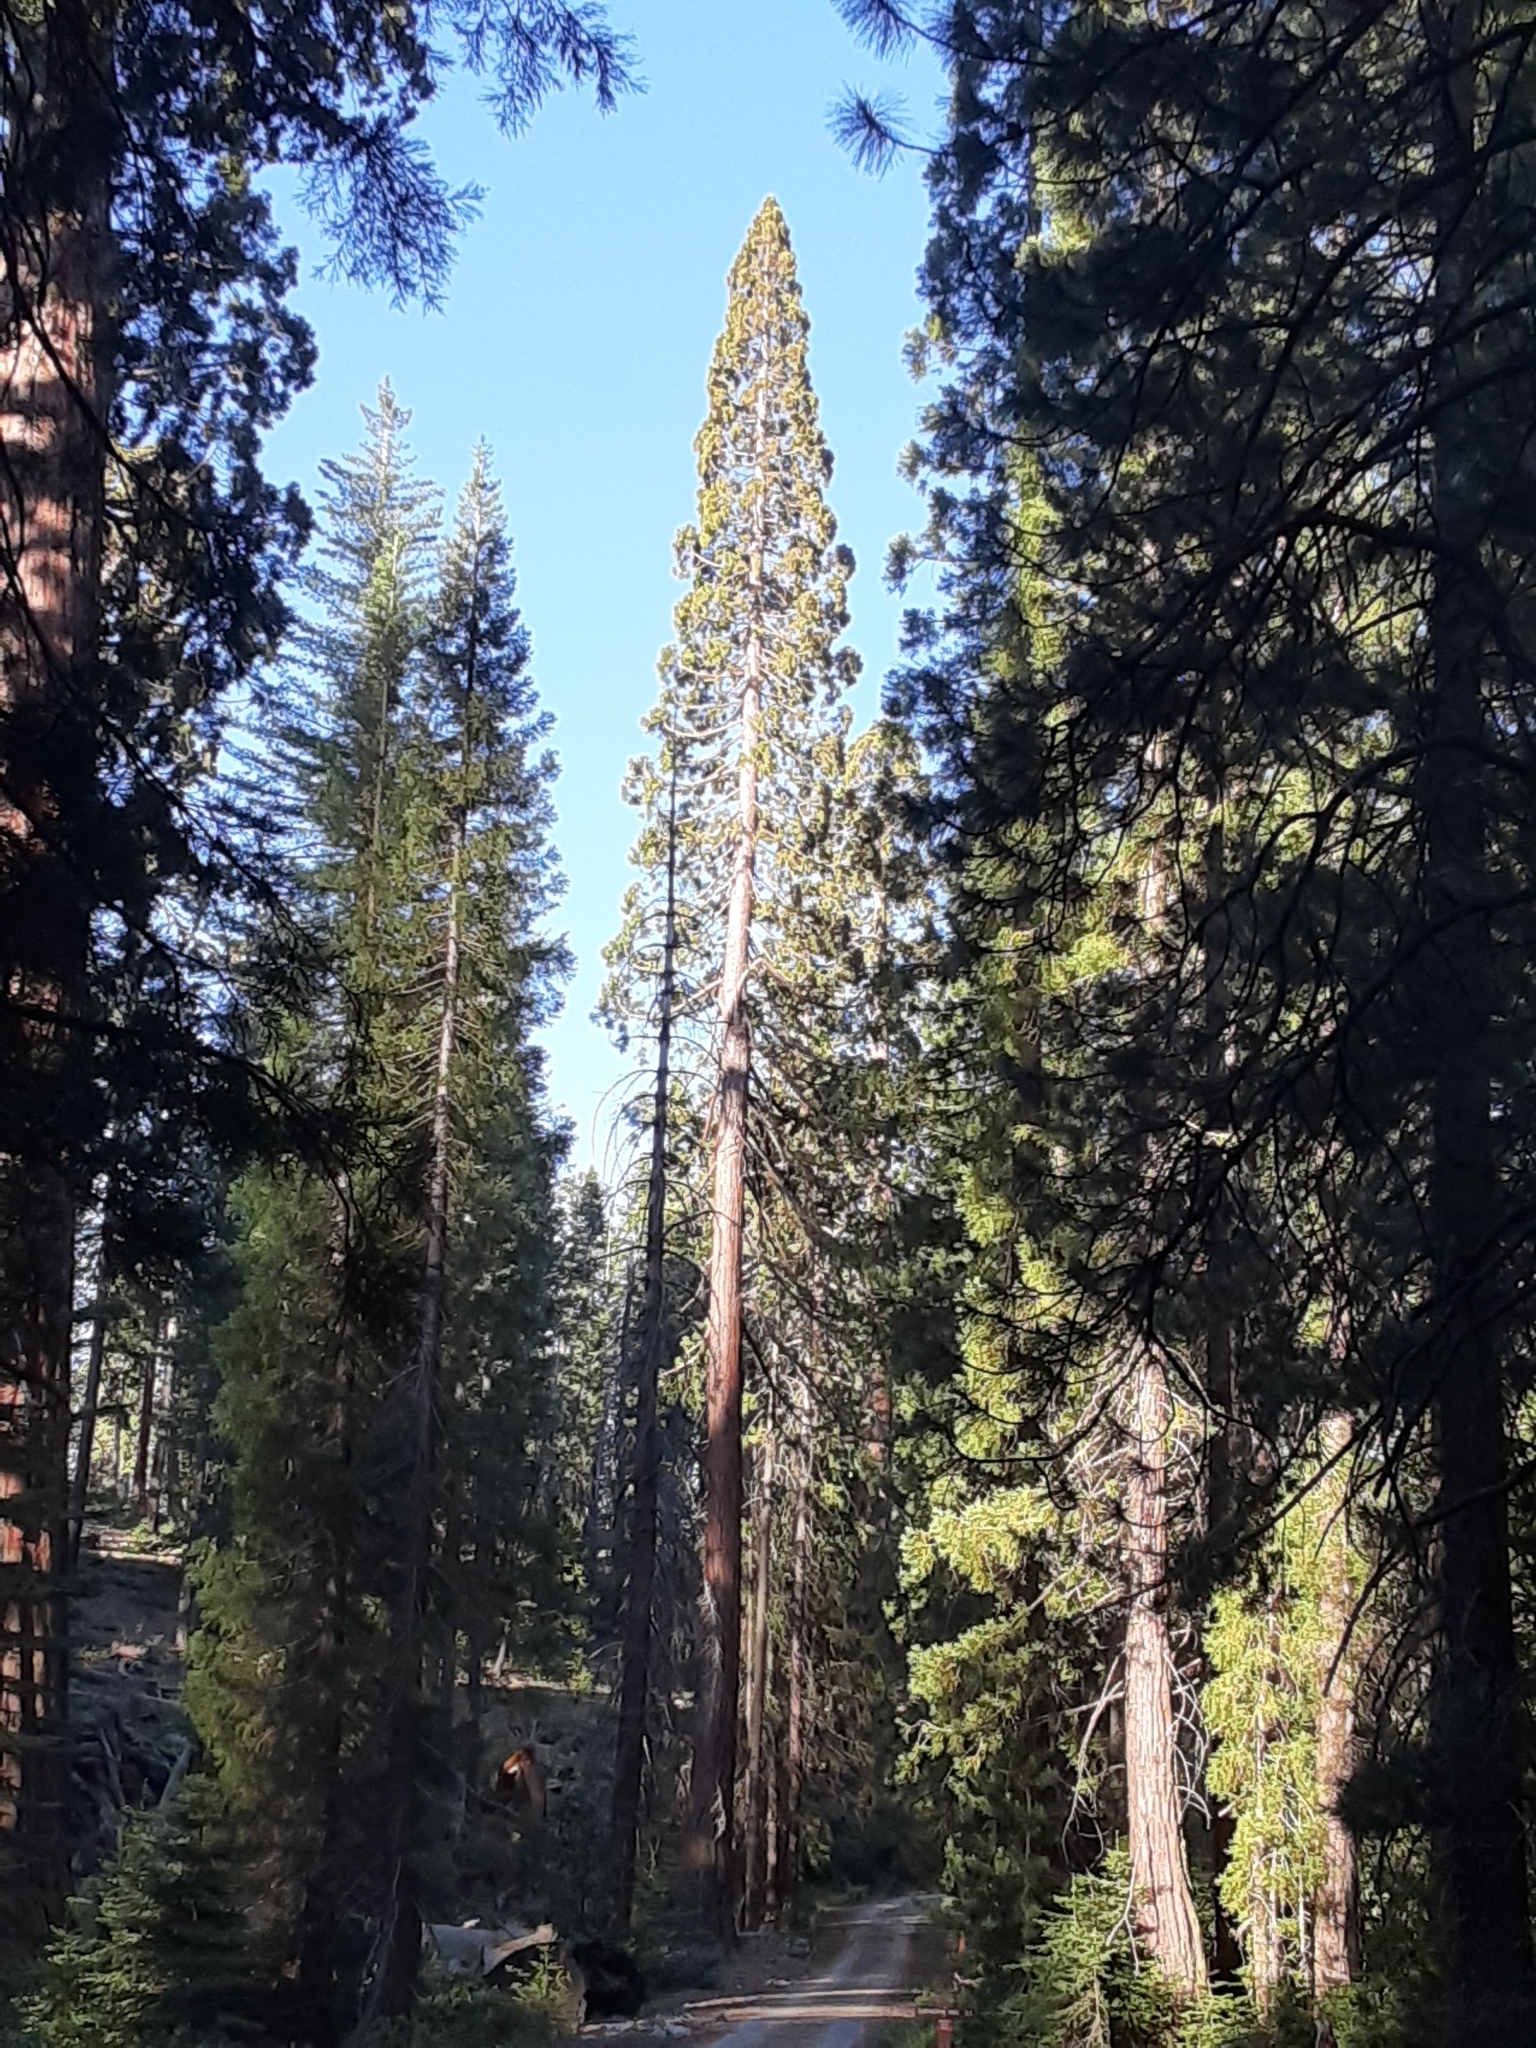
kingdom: Plantae
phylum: Tracheophyta
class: Pinopsida
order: Pinales
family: Cupressaceae
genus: Sequoiadendron
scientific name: Sequoiadendron giganteum
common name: Wellingtonia
